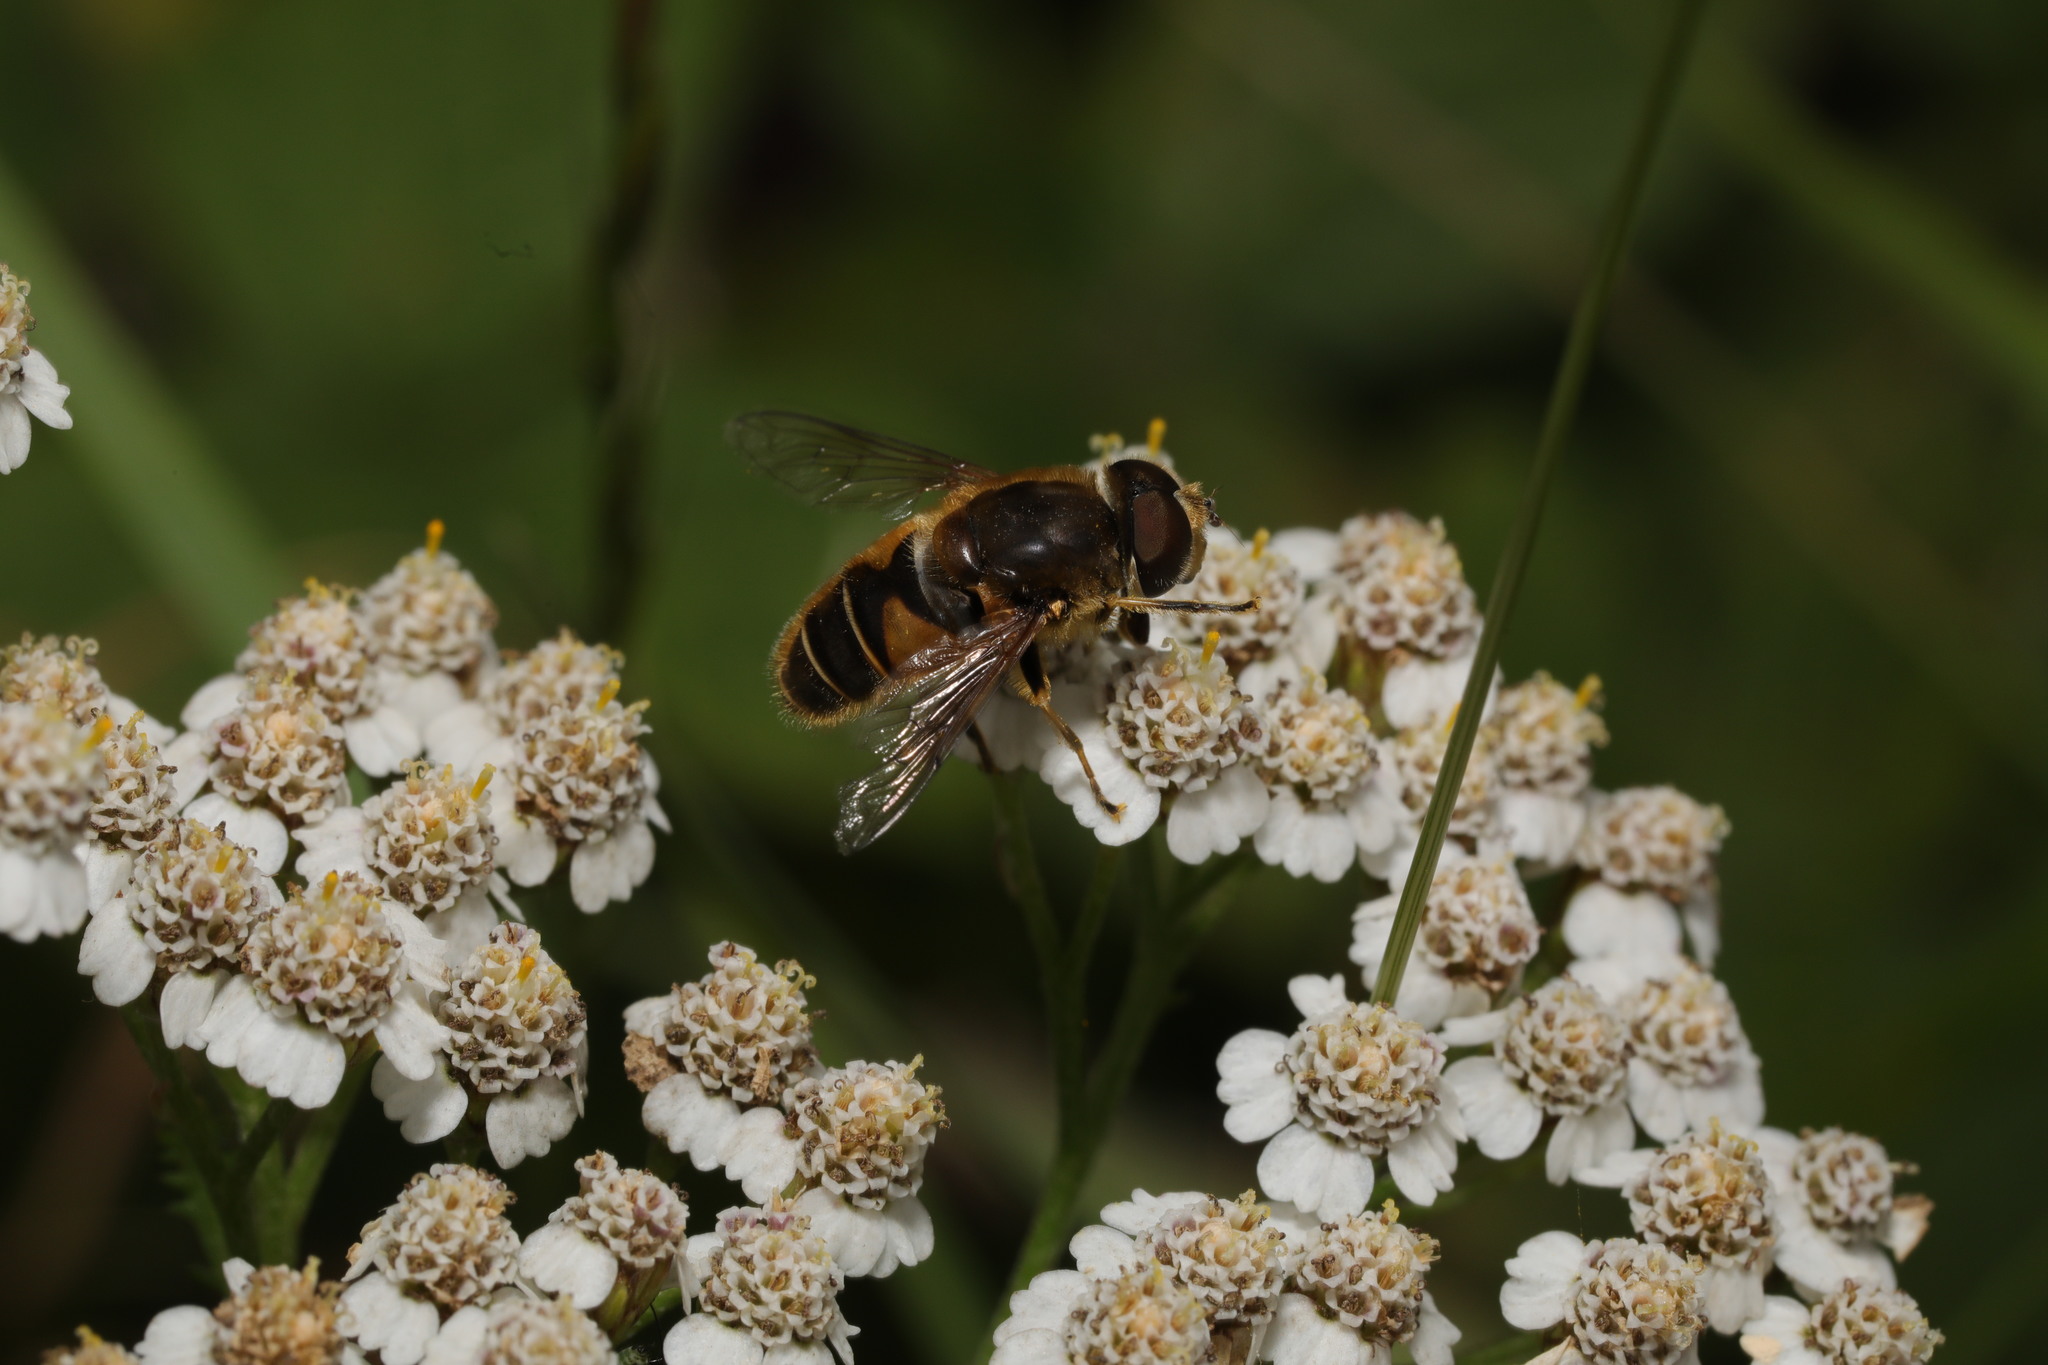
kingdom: Animalia
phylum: Arthropoda
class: Insecta
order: Diptera
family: Syrphidae
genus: Eristalis
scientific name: Eristalis nemorum
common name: Orange-spined drone fly
